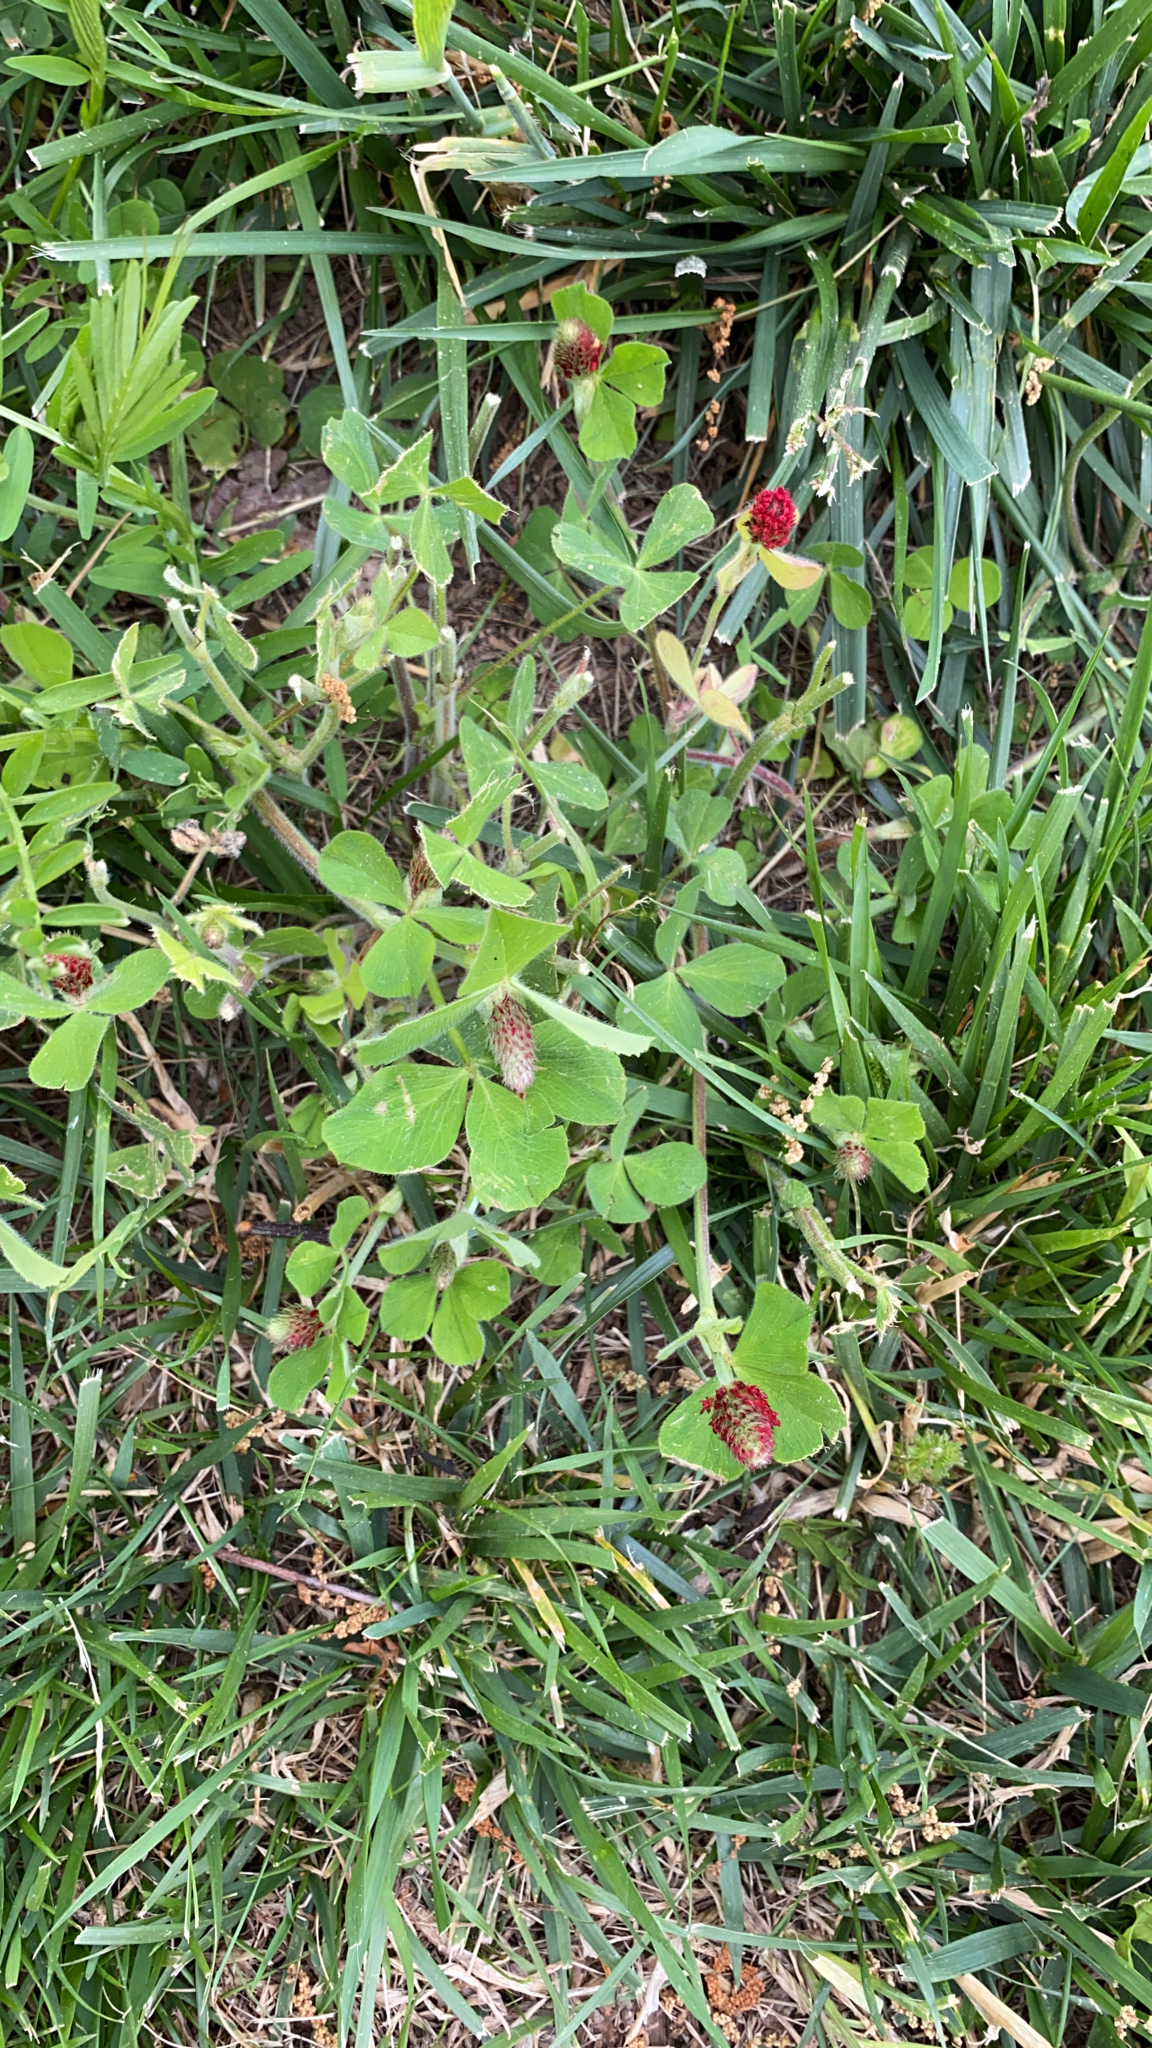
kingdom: Plantae
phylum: Tracheophyta
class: Magnoliopsida
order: Fabales
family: Fabaceae
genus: Trifolium
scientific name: Trifolium incarnatum
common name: Crimson clover
